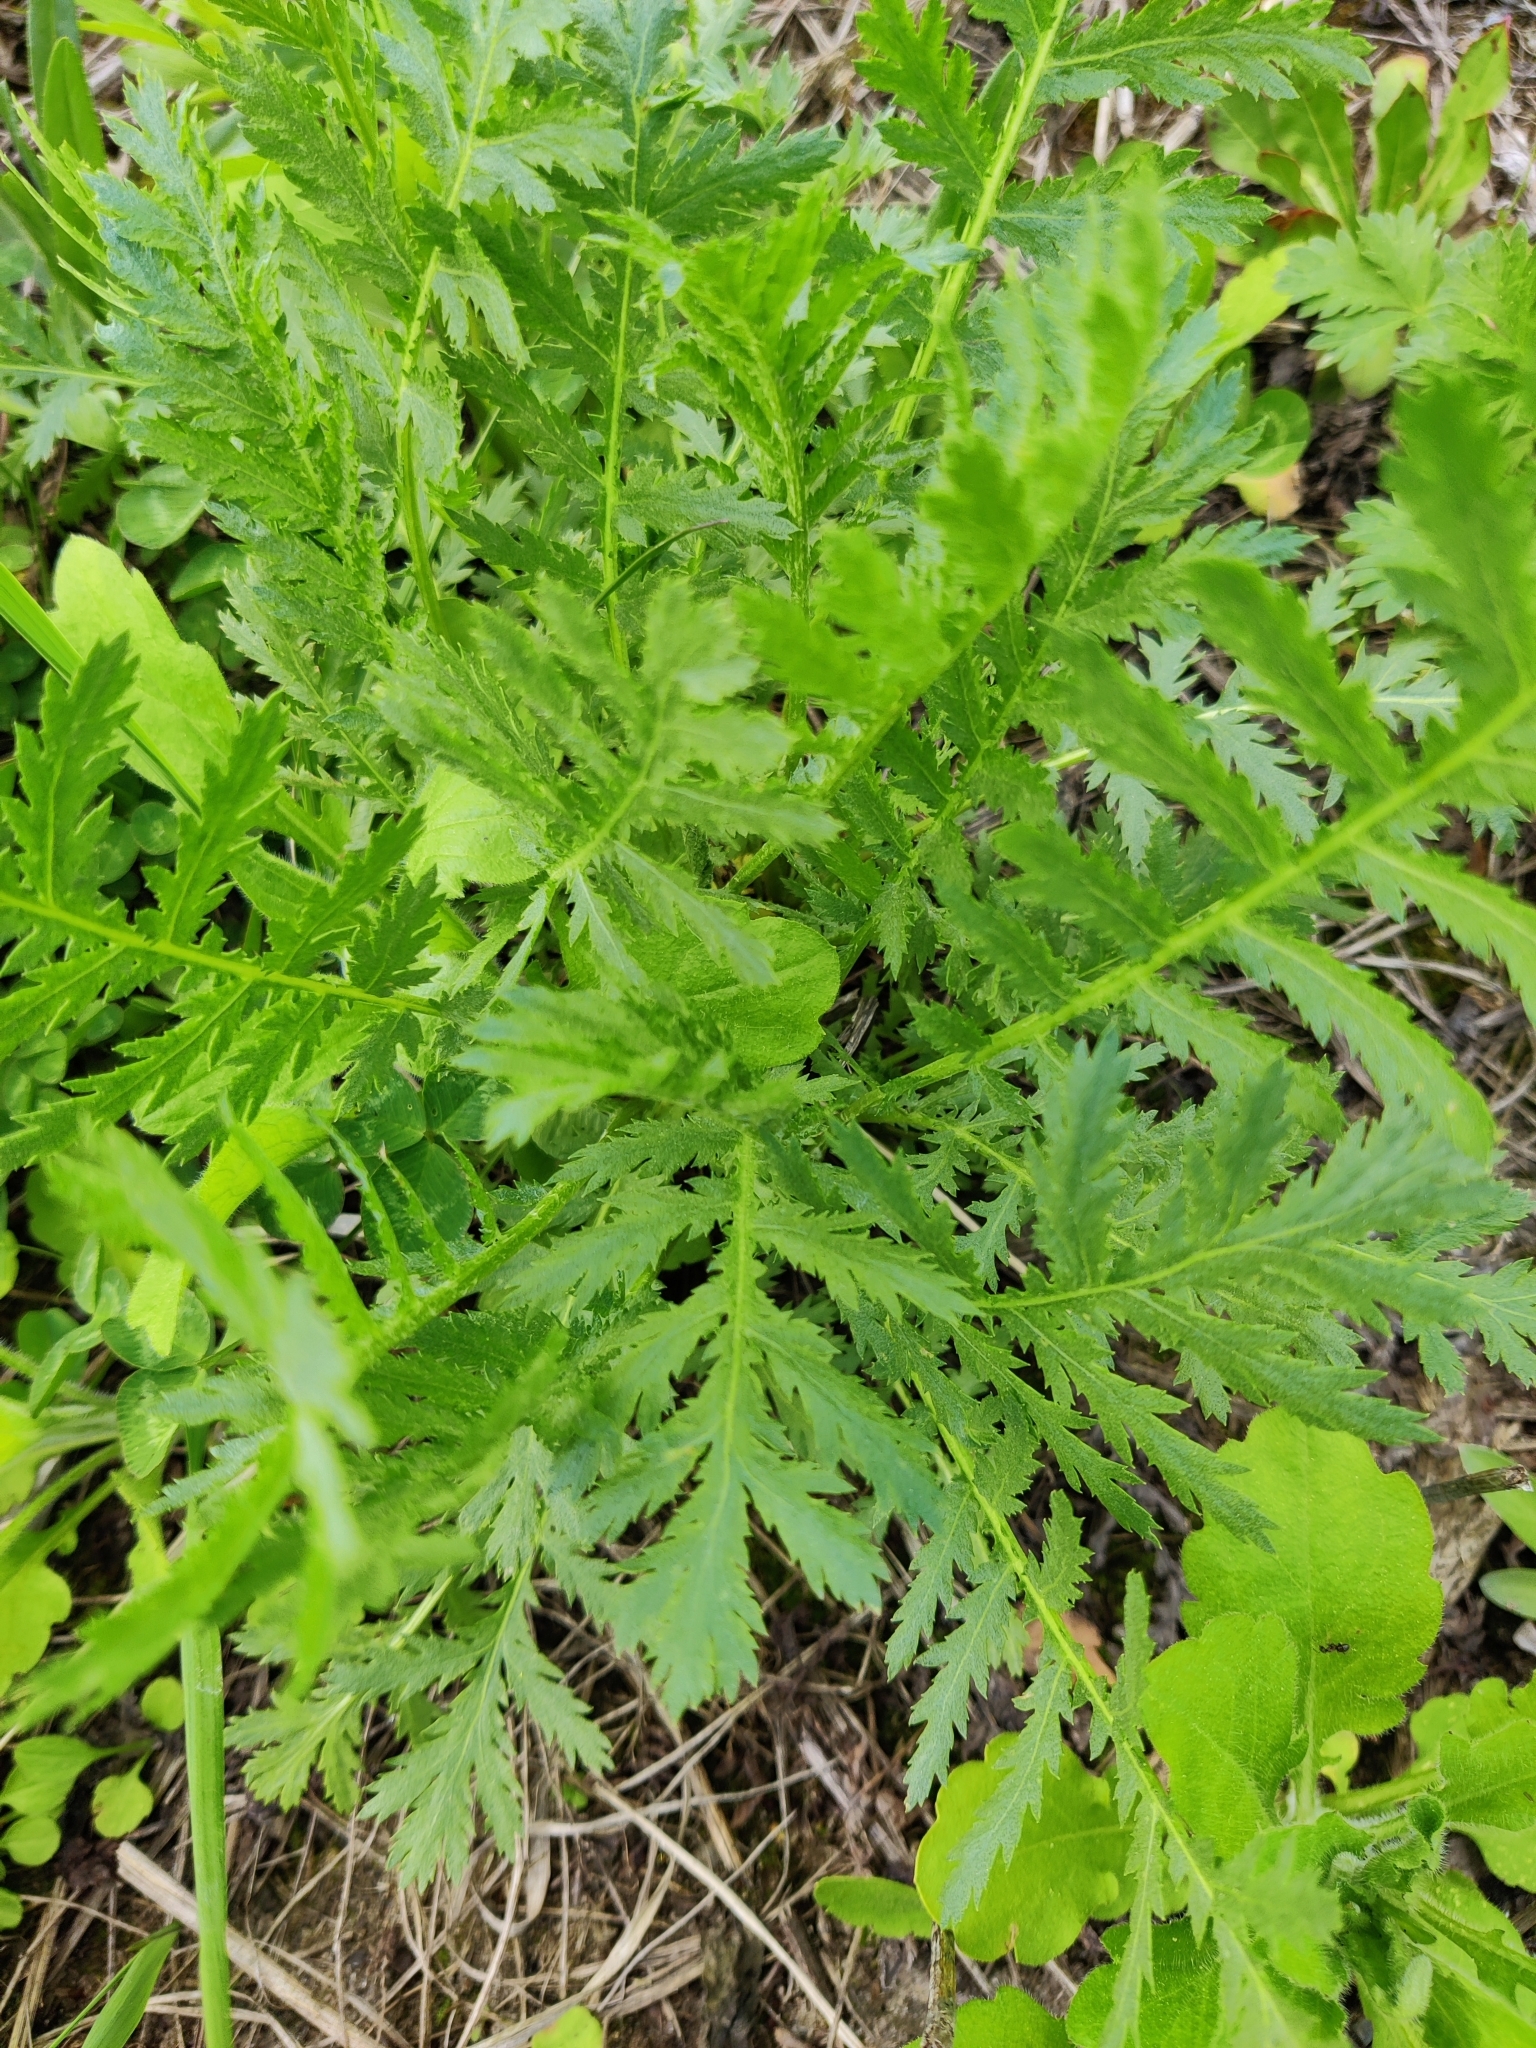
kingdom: Plantae
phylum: Tracheophyta
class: Magnoliopsida
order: Asterales
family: Asteraceae
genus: Tanacetum
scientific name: Tanacetum vulgare
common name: Common tansy
